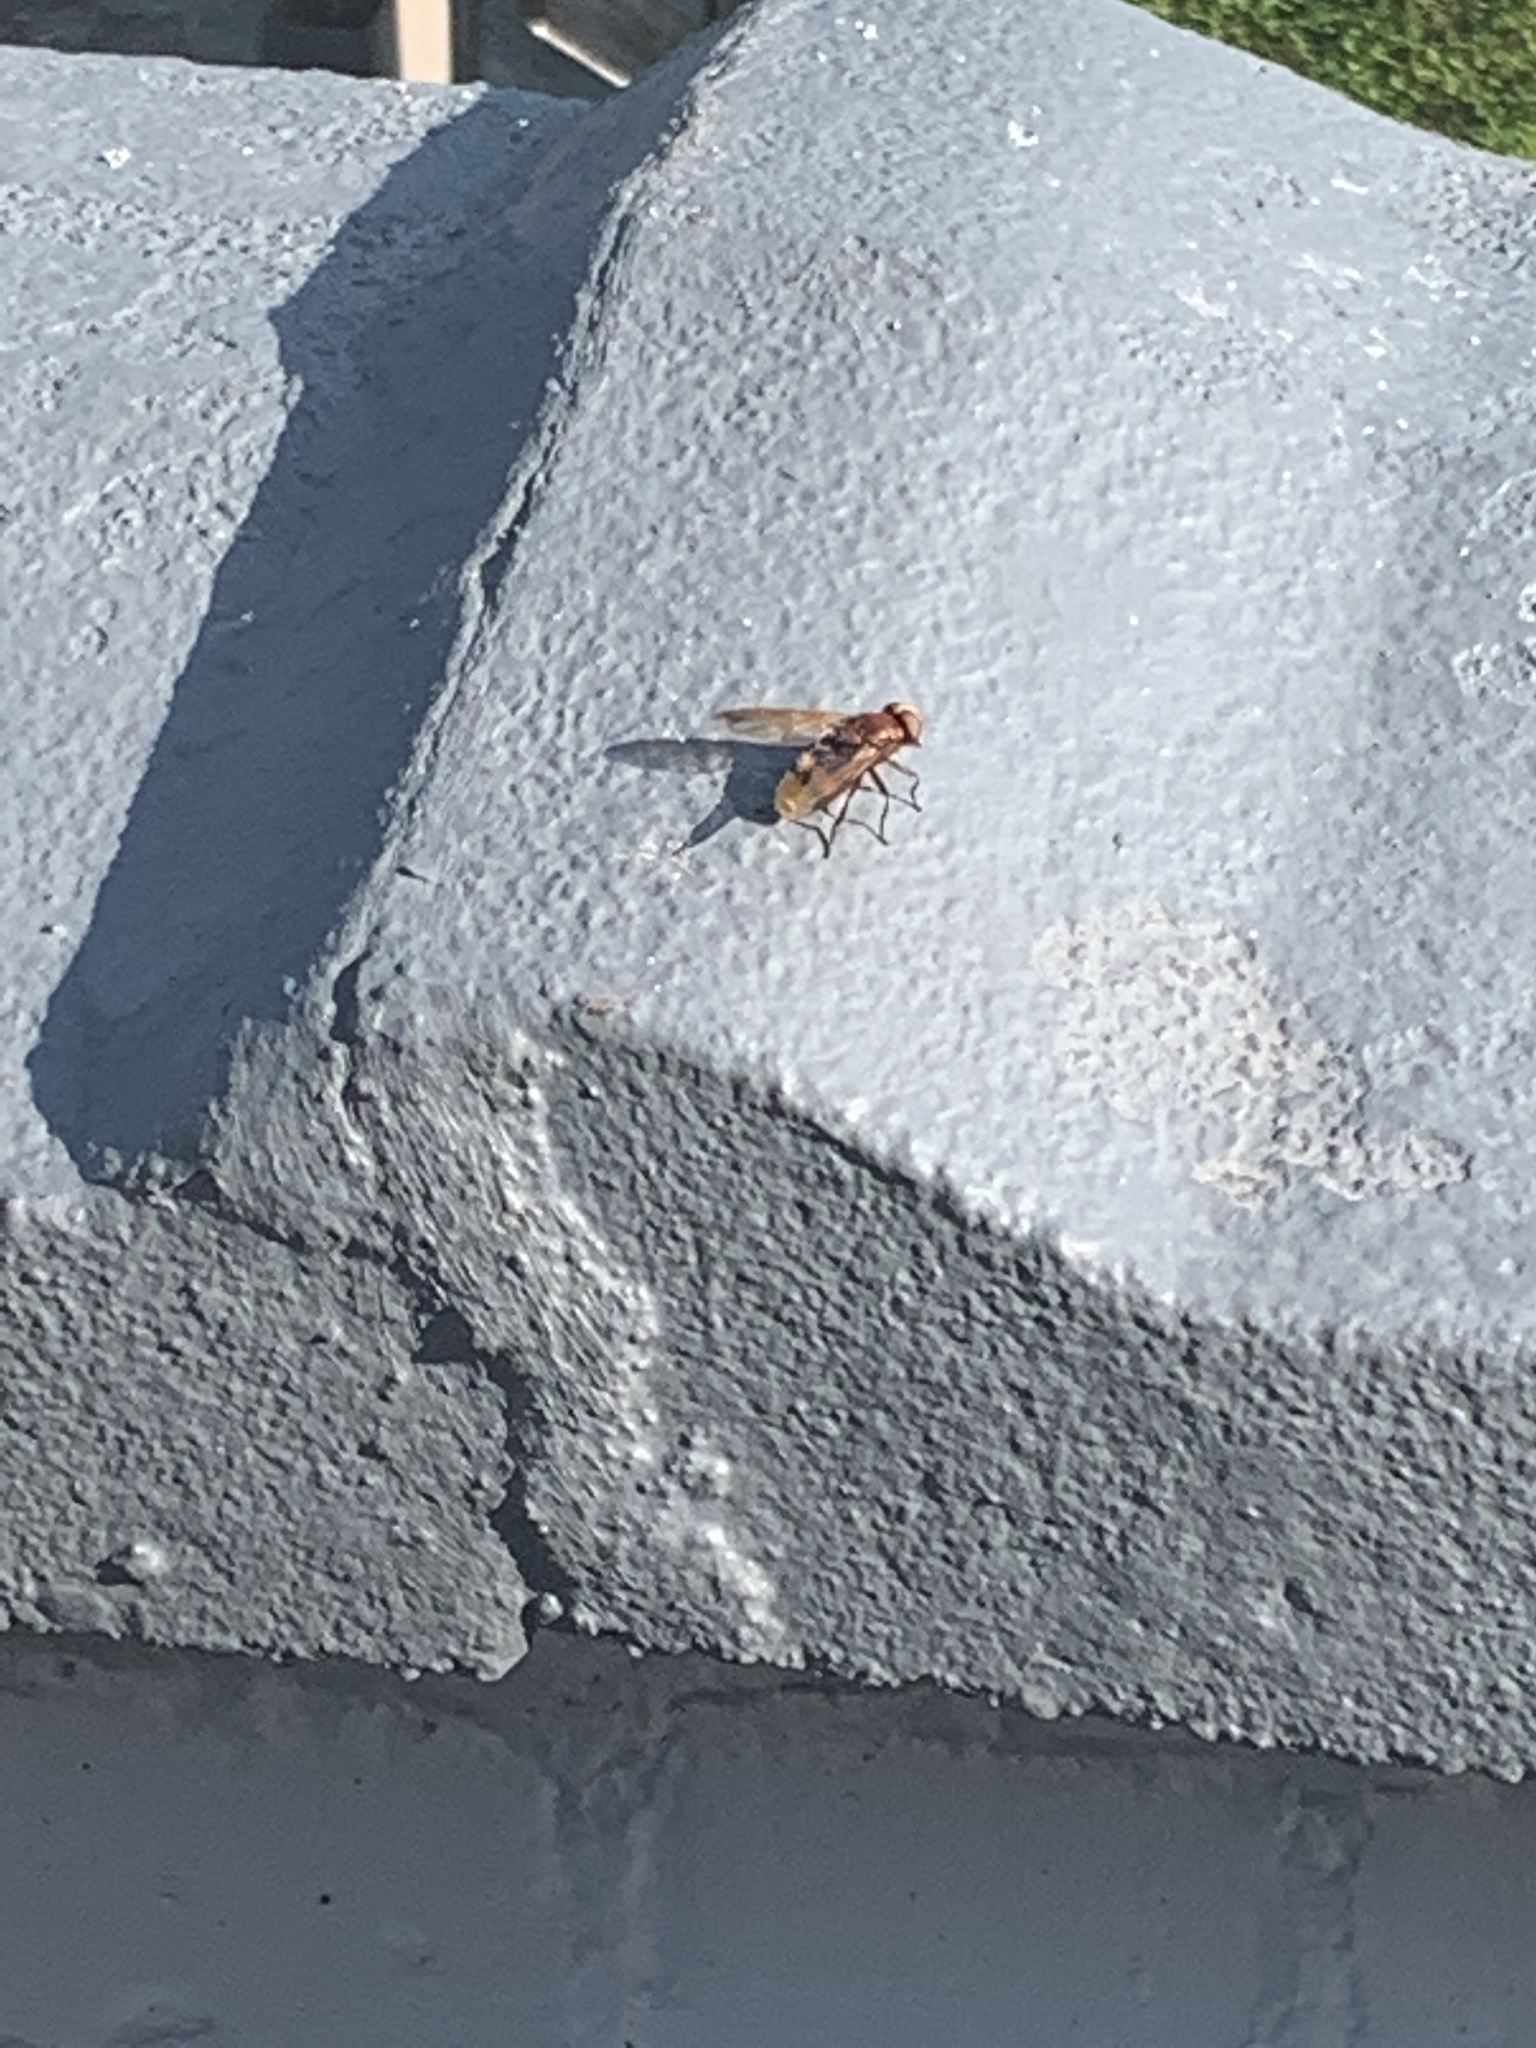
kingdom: Animalia
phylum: Arthropoda
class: Insecta
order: Diptera
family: Syrphidae
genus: Volucella
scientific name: Volucella zonaria
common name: Hornet hoverfly
